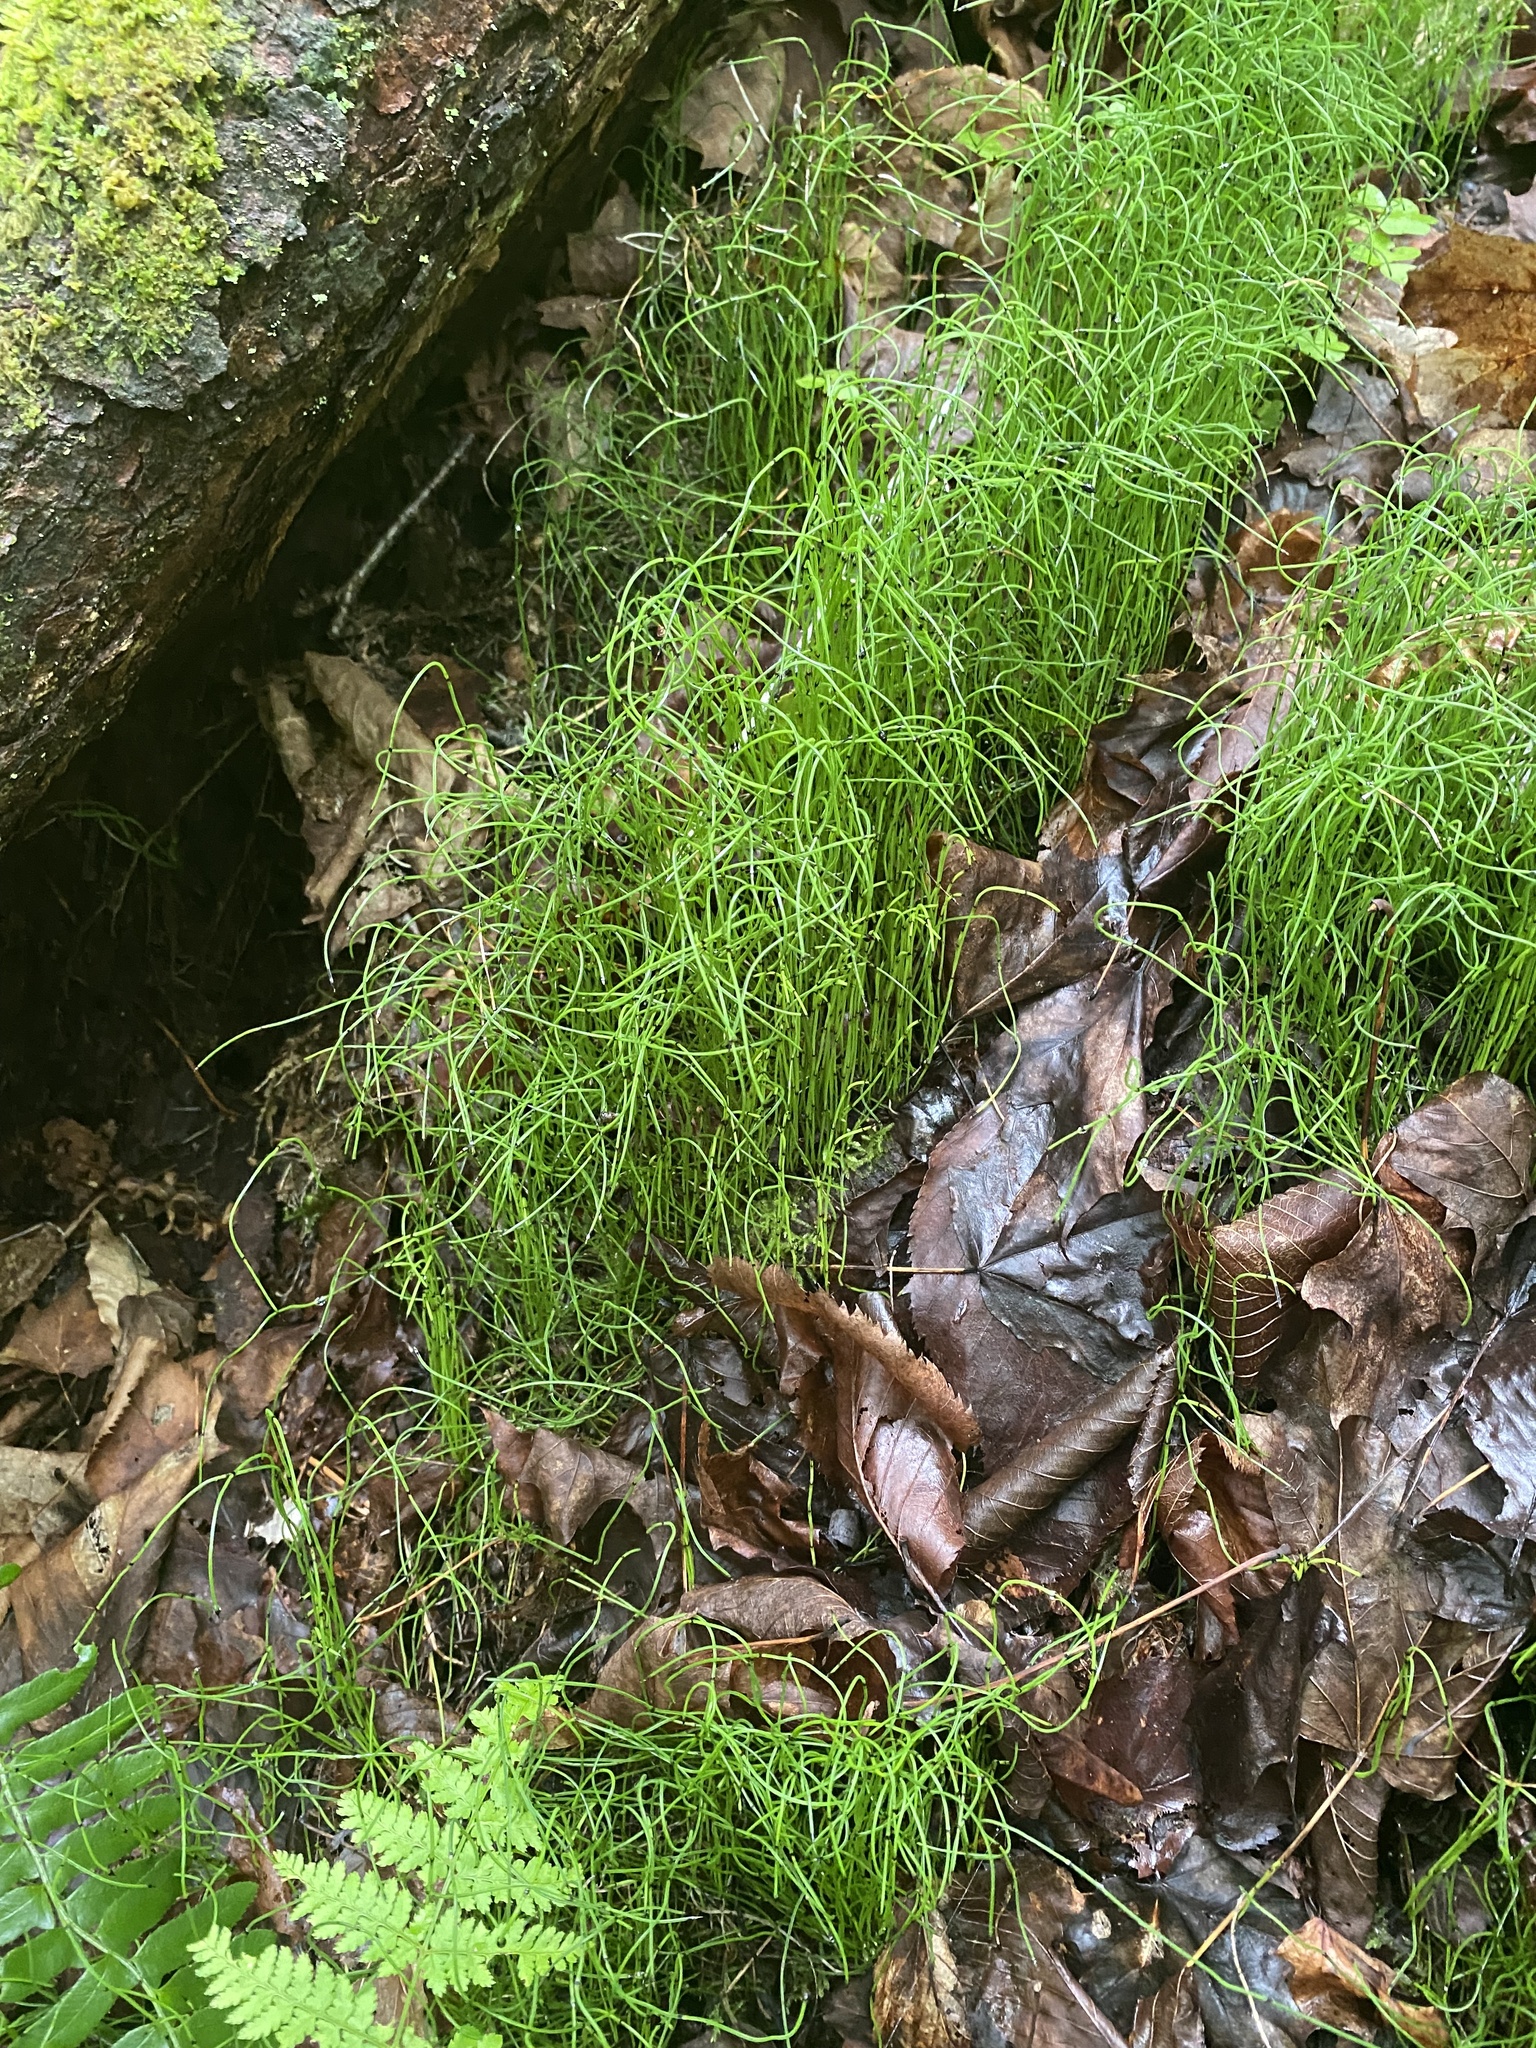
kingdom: Plantae
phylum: Tracheophyta
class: Polypodiopsida
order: Equisetales
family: Equisetaceae
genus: Equisetum
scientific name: Equisetum scirpoides
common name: Delicate horsetail
